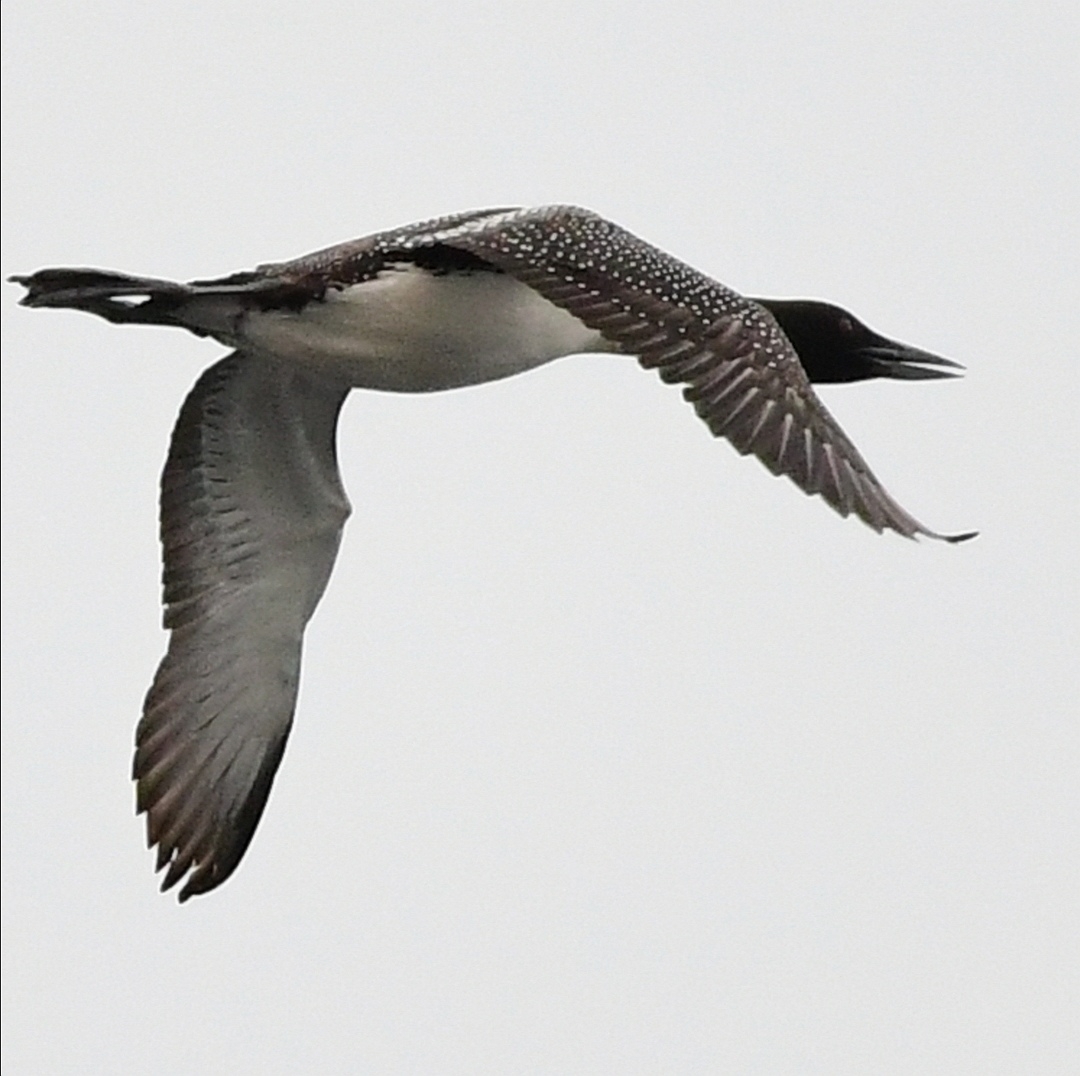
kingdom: Animalia
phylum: Chordata
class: Aves
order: Gaviiformes
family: Gaviidae
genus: Gavia
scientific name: Gavia immer
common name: Common loon
